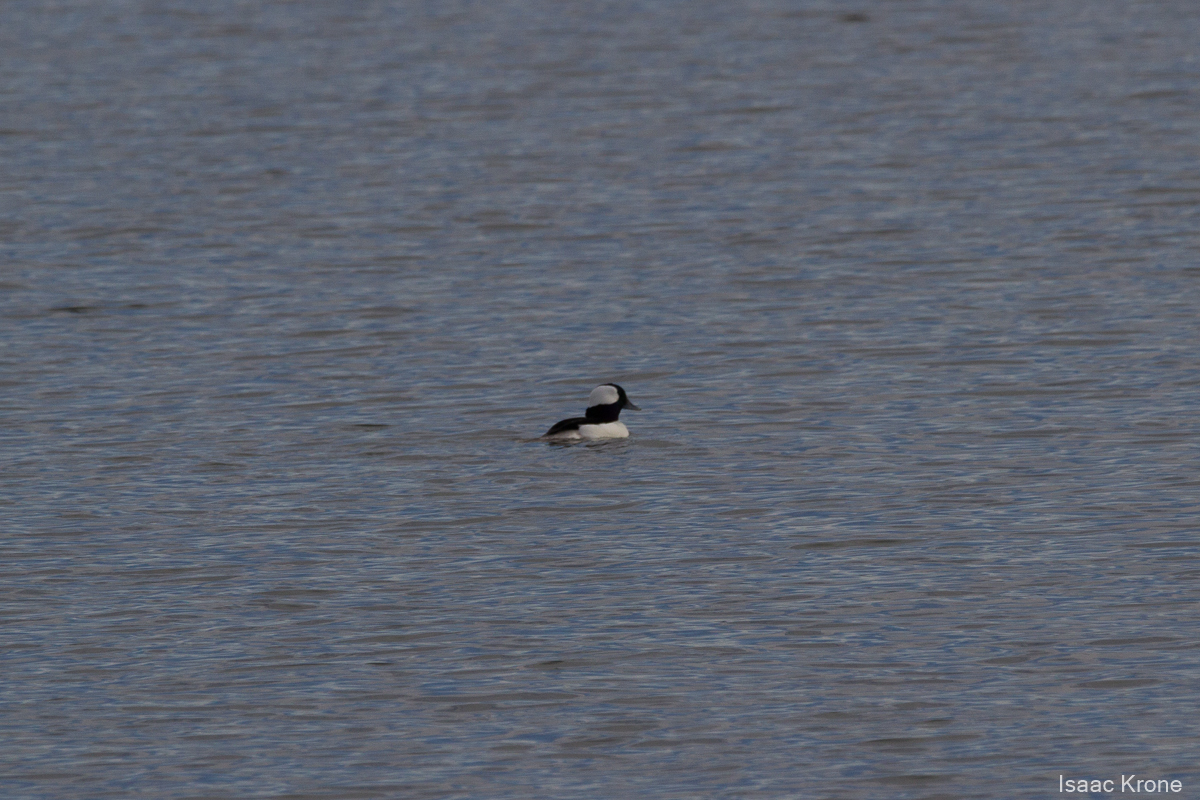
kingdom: Animalia
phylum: Chordata
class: Aves
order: Anseriformes
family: Anatidae
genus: Bucephala
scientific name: Bucephala albeola
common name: Bufflehead
